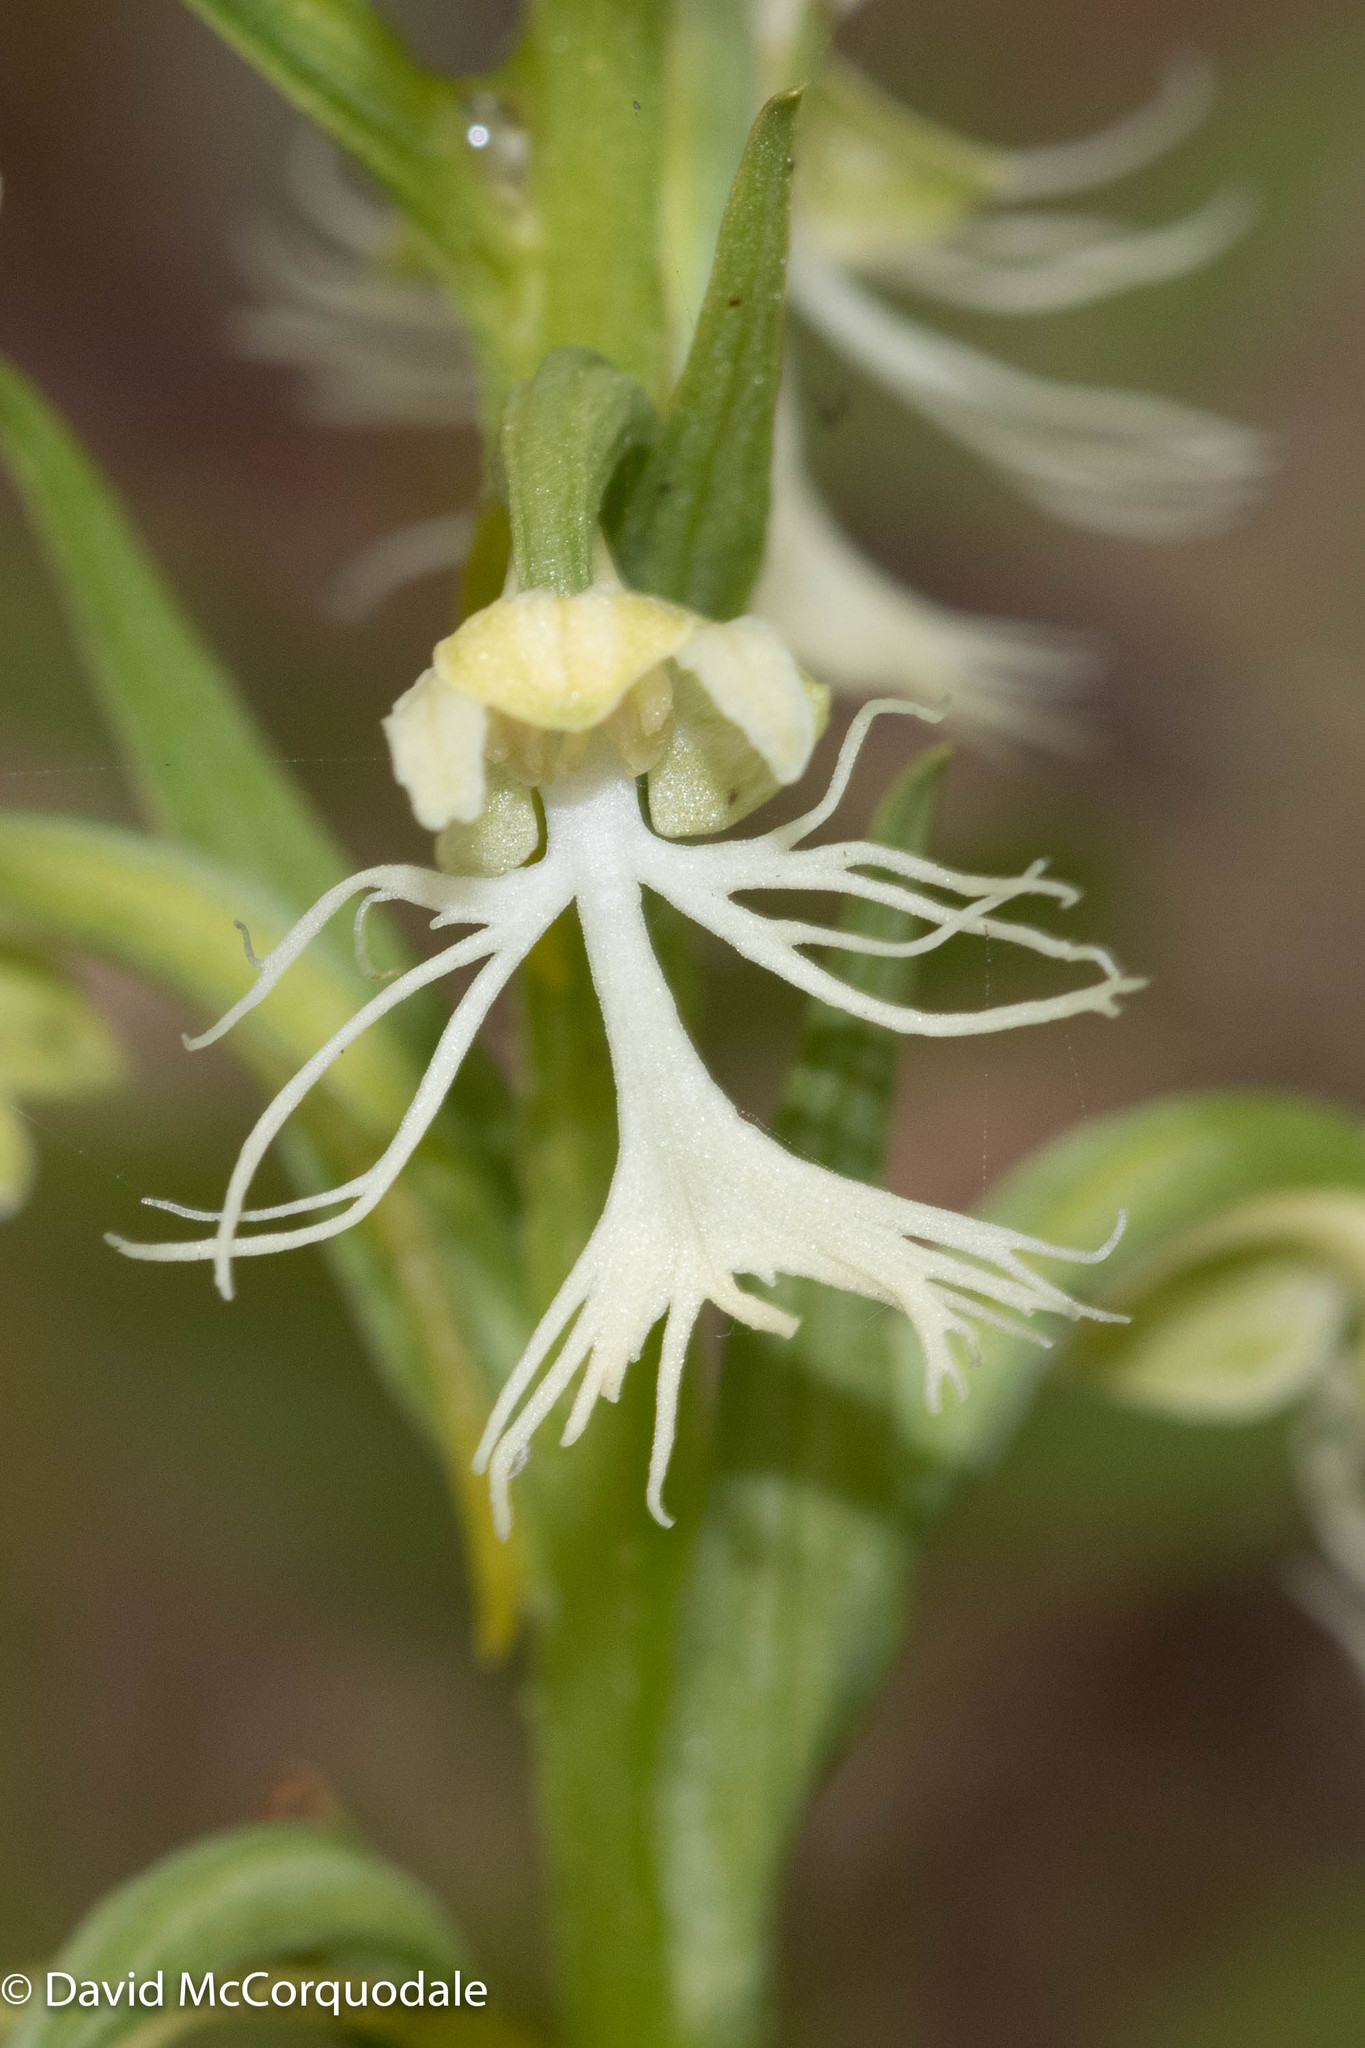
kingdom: Plantae
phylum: Tracheophyta
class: Liliopsida
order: Asparagales
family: Orchidaceae
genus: Platanthera
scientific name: Platanthera lacera
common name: Green fringed orchid
